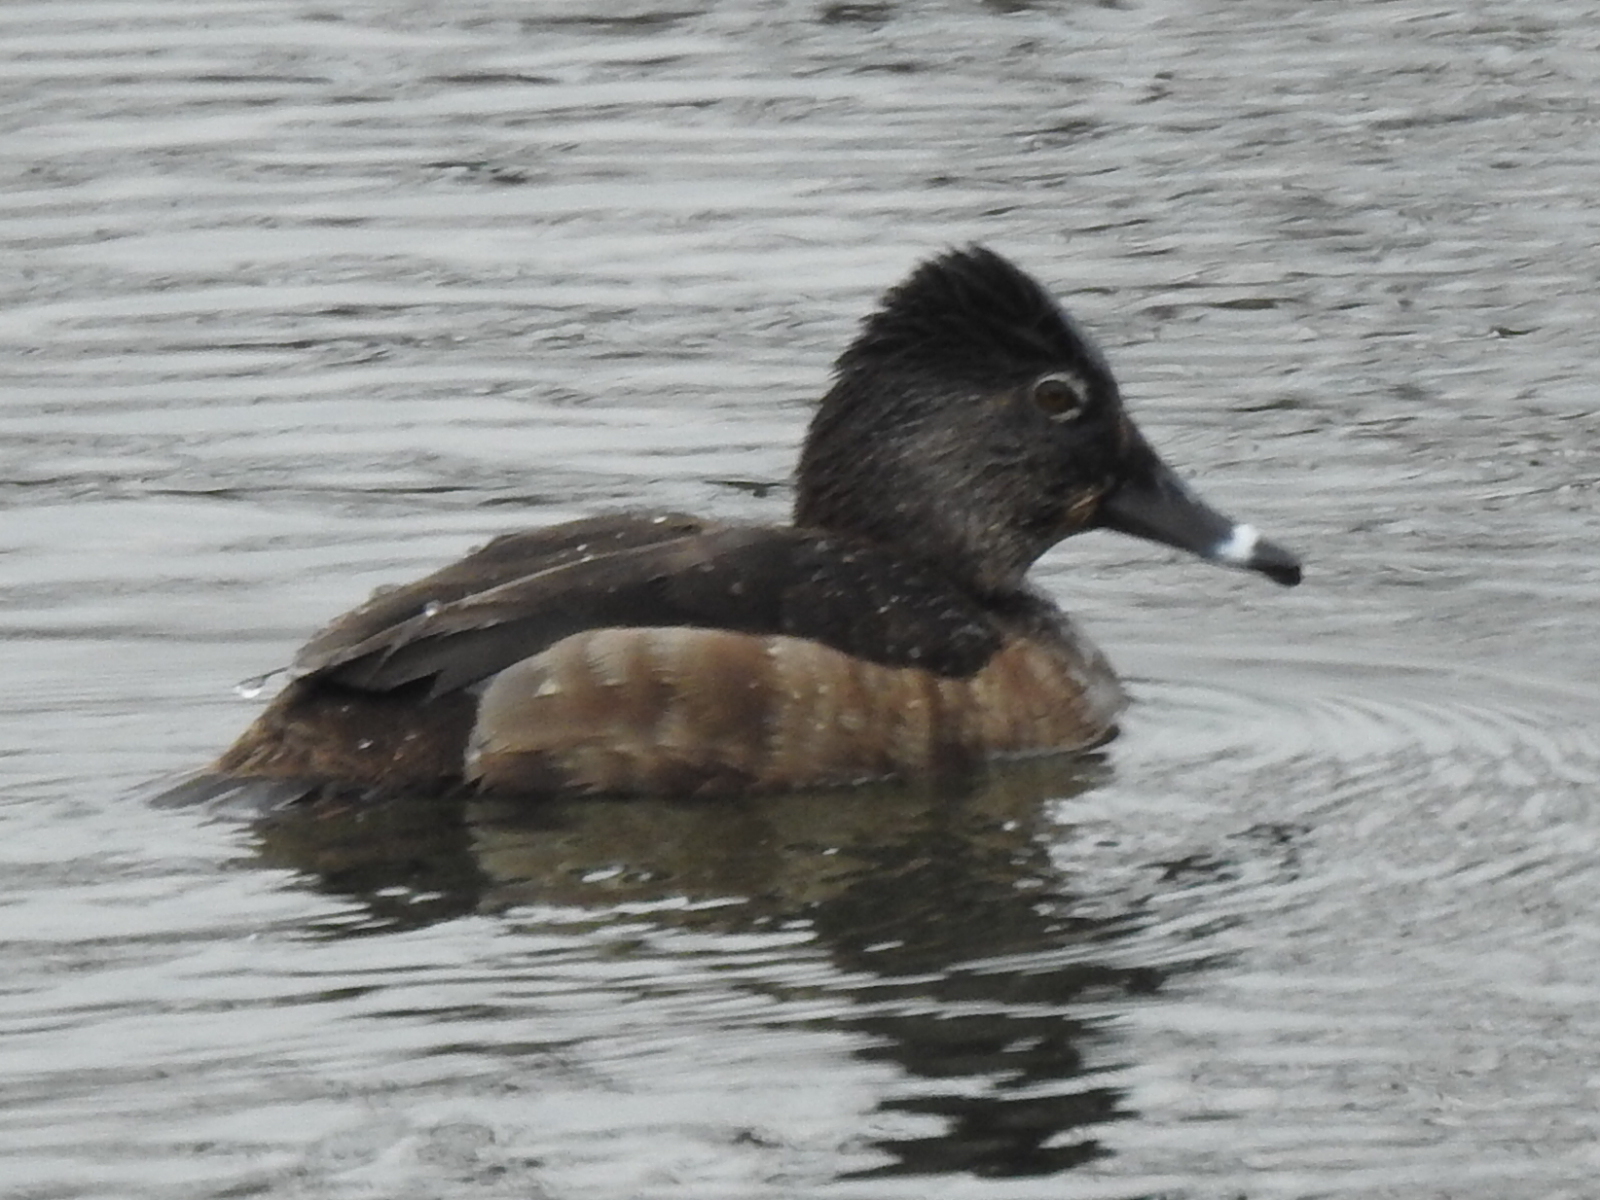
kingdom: Animalia
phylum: Chordata
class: Aves
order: Anseriformes
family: Anatidae
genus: Aythya
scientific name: Aythya collaris
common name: Ring-necked duck
